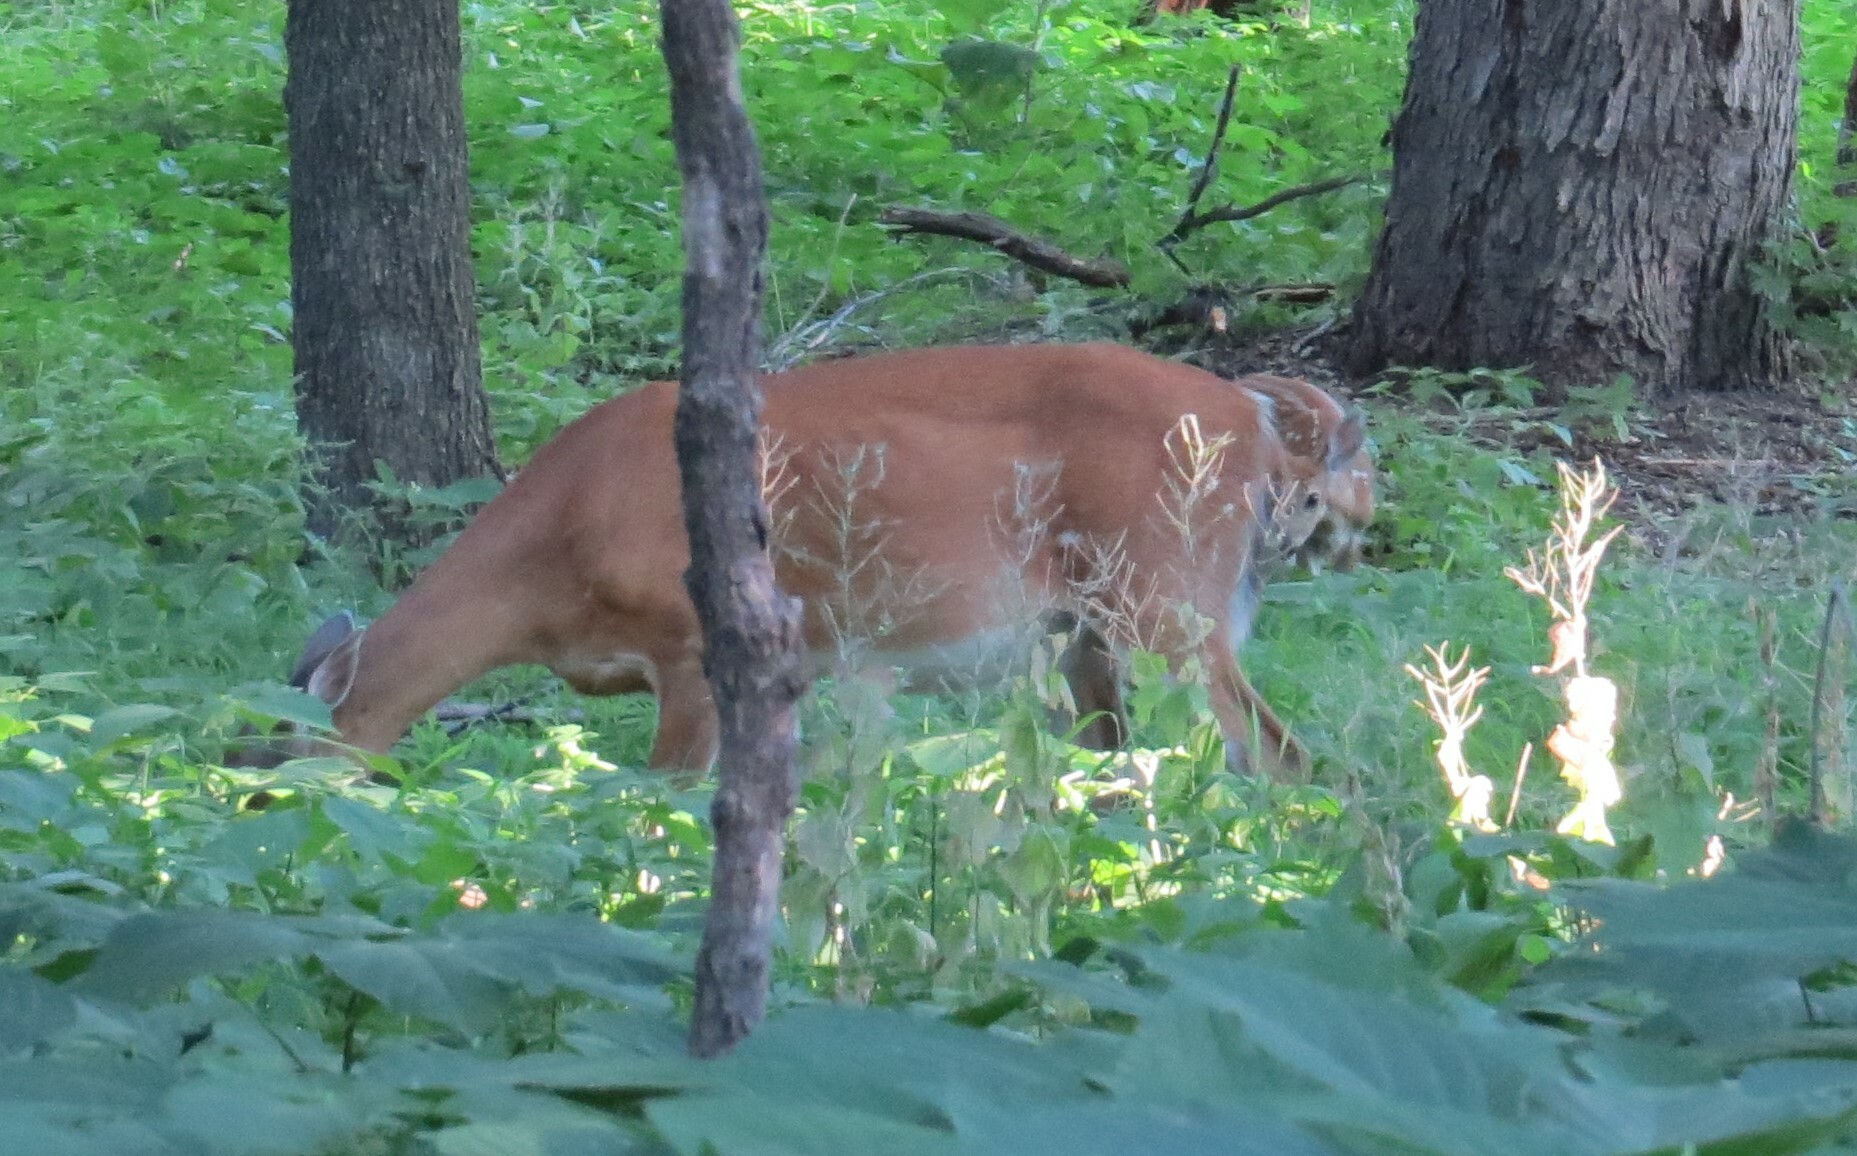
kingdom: Animalia
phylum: Chordata
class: Mammalia
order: Artiodactyla
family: Cervidae
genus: Odocoileus
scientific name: Odocoileus virginianus
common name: White-tailed deer
